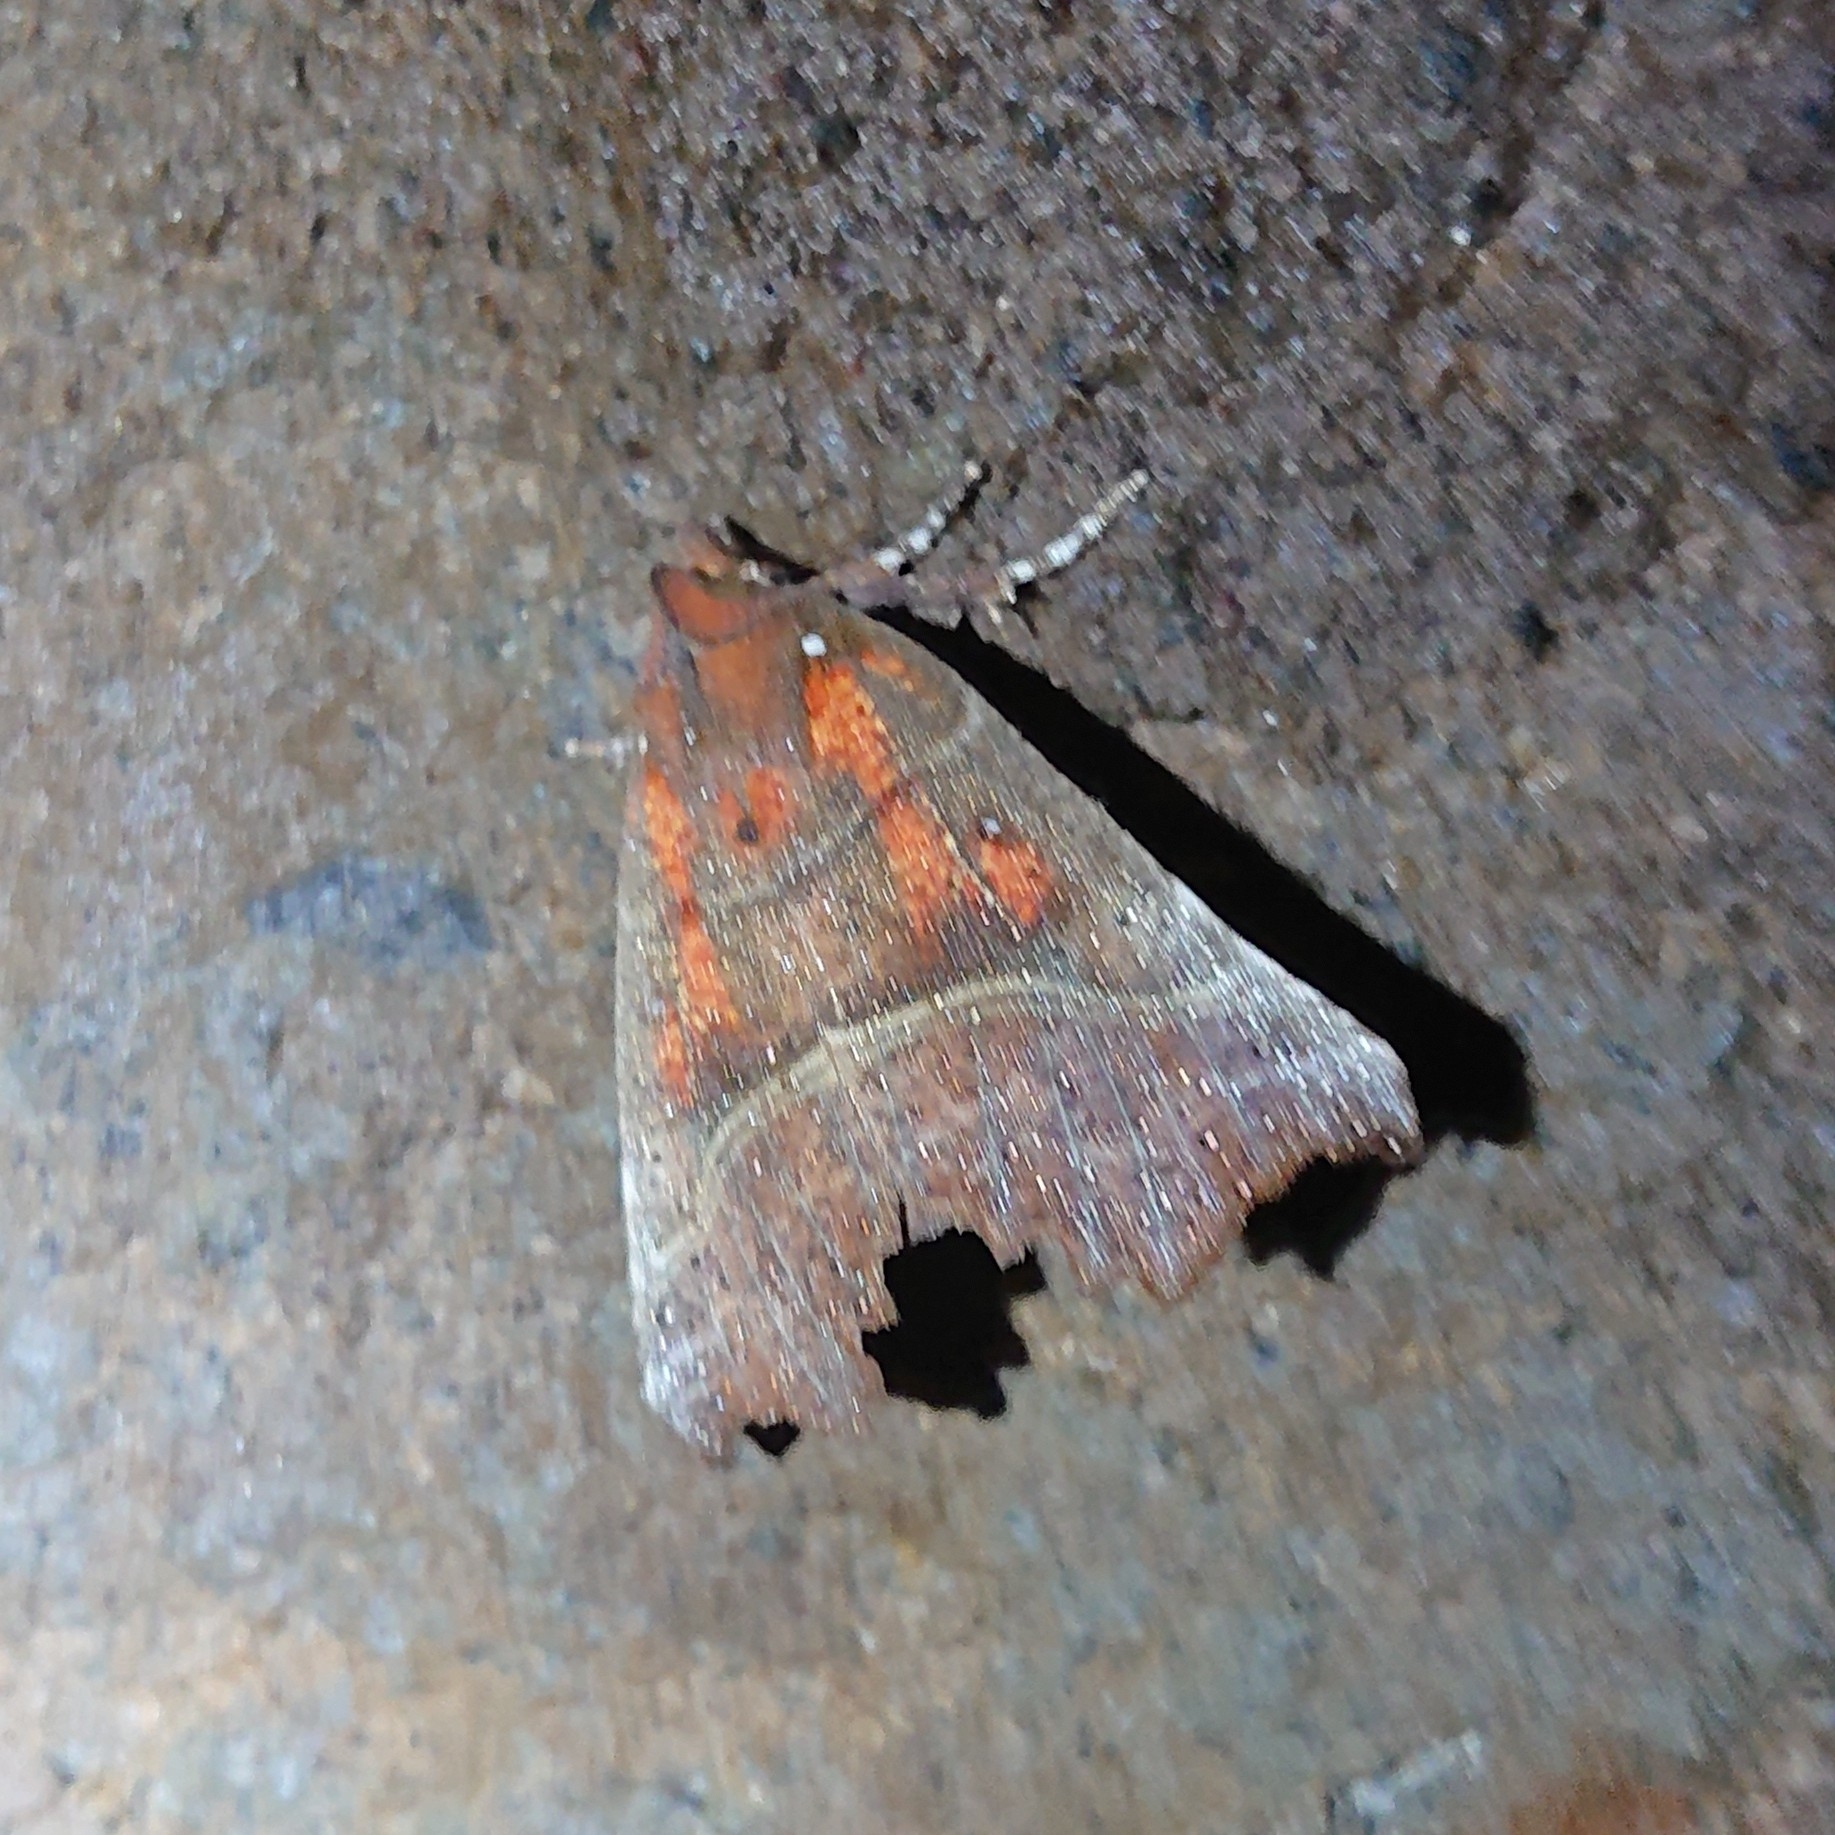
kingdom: Animalia
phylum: Arthropoda
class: Insecta
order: Lepidoptera
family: Erebidae
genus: Scoliopteryx
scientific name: Scoliopteryx libatrix
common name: Herald
